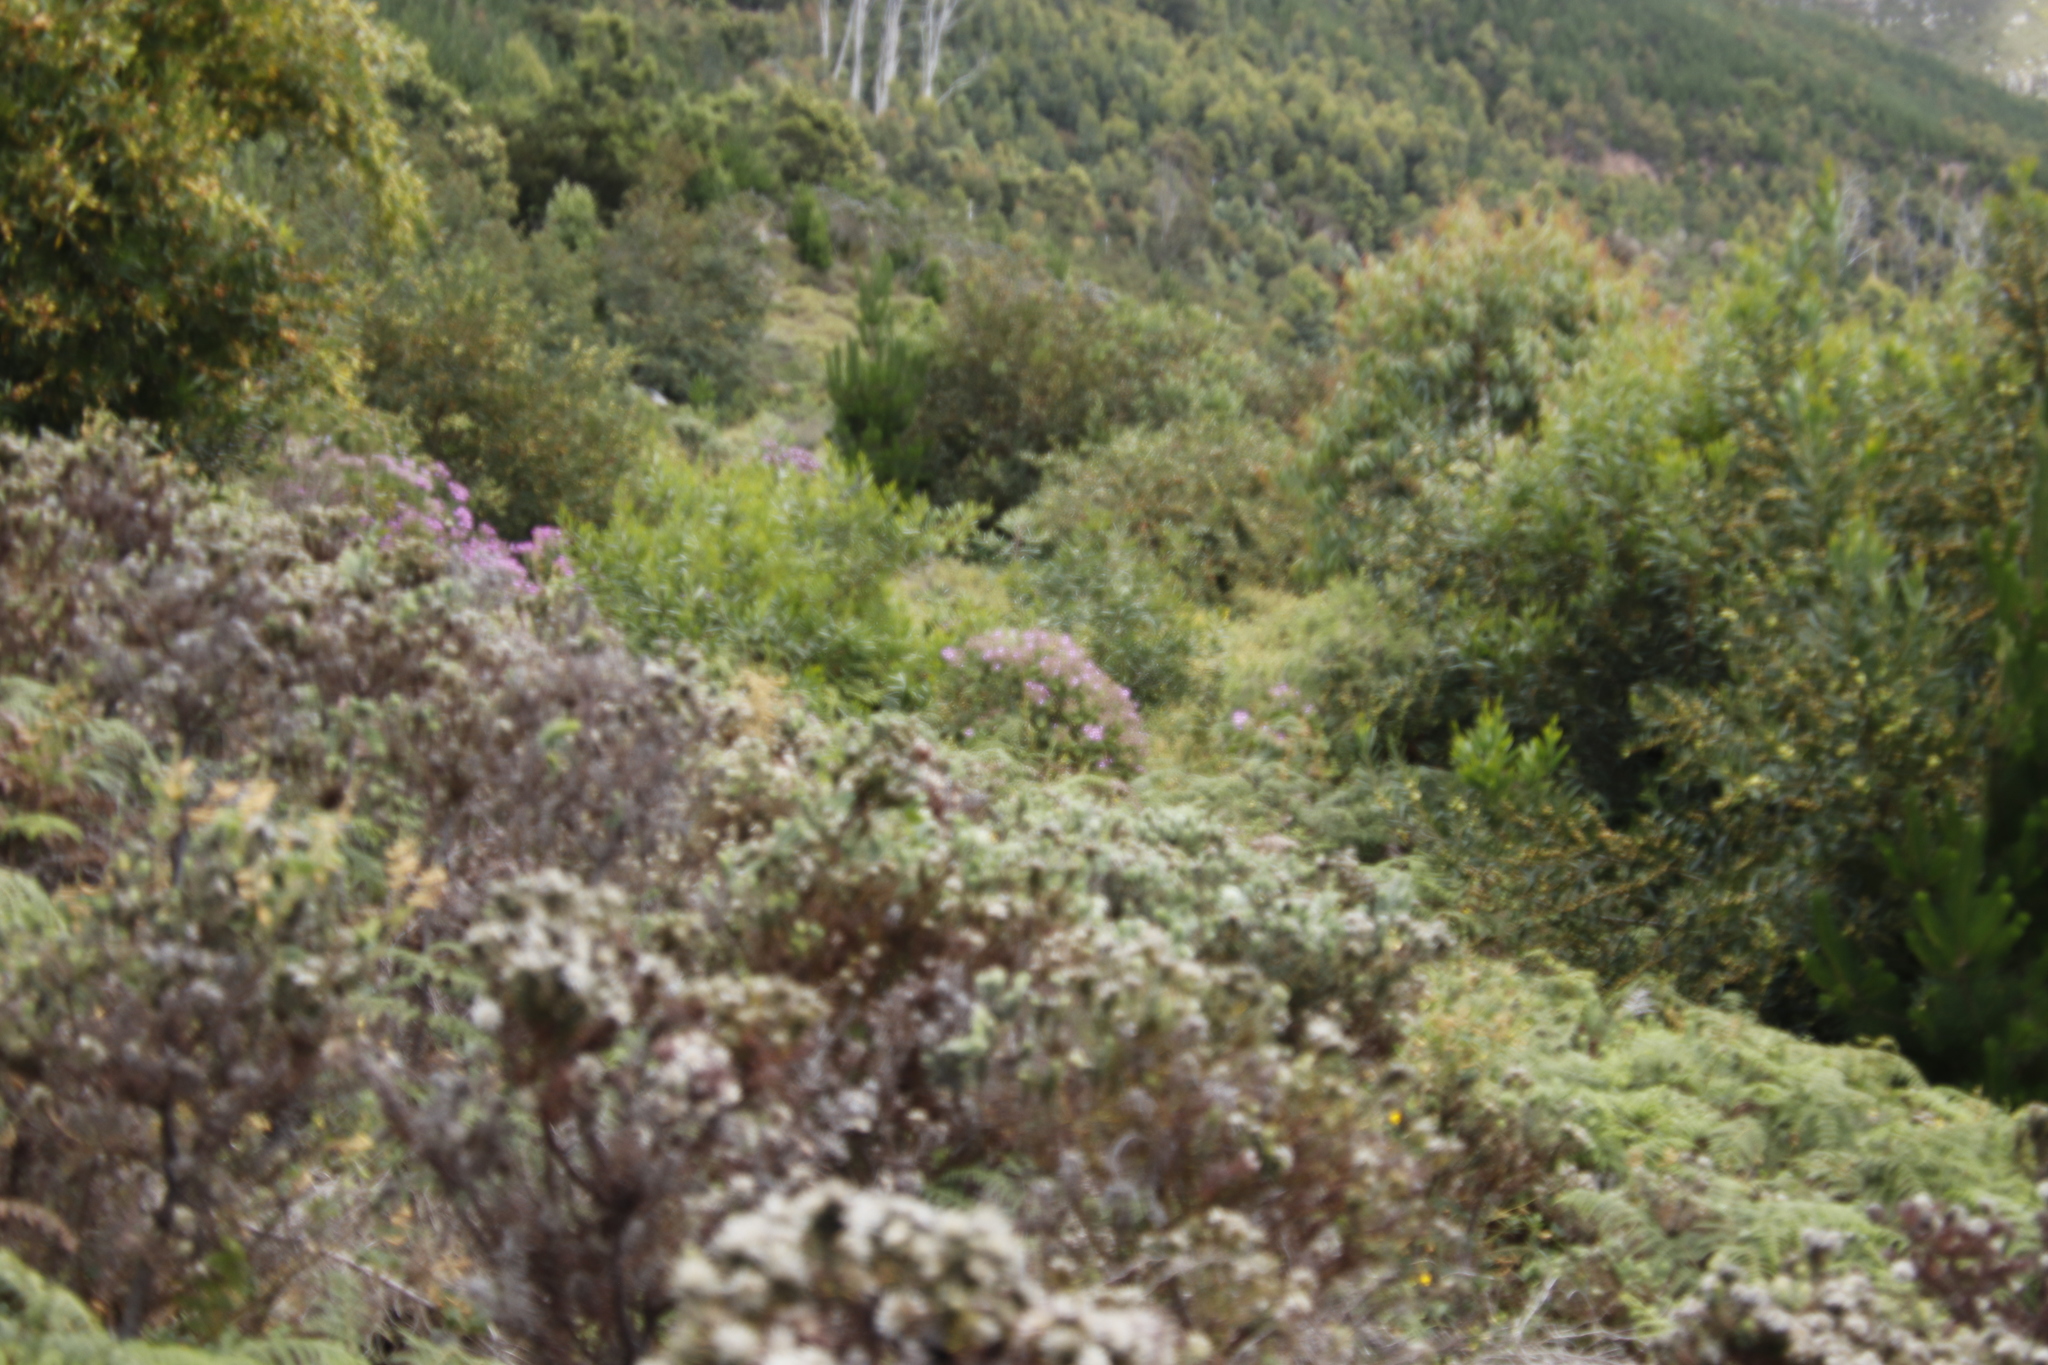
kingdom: Plantae
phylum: Tracheophyta
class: Magnoliopsida
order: Geraniales
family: Geraniaceae
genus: Pelargonium
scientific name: Pelargonium cucullatum
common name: Tree pelargonium
